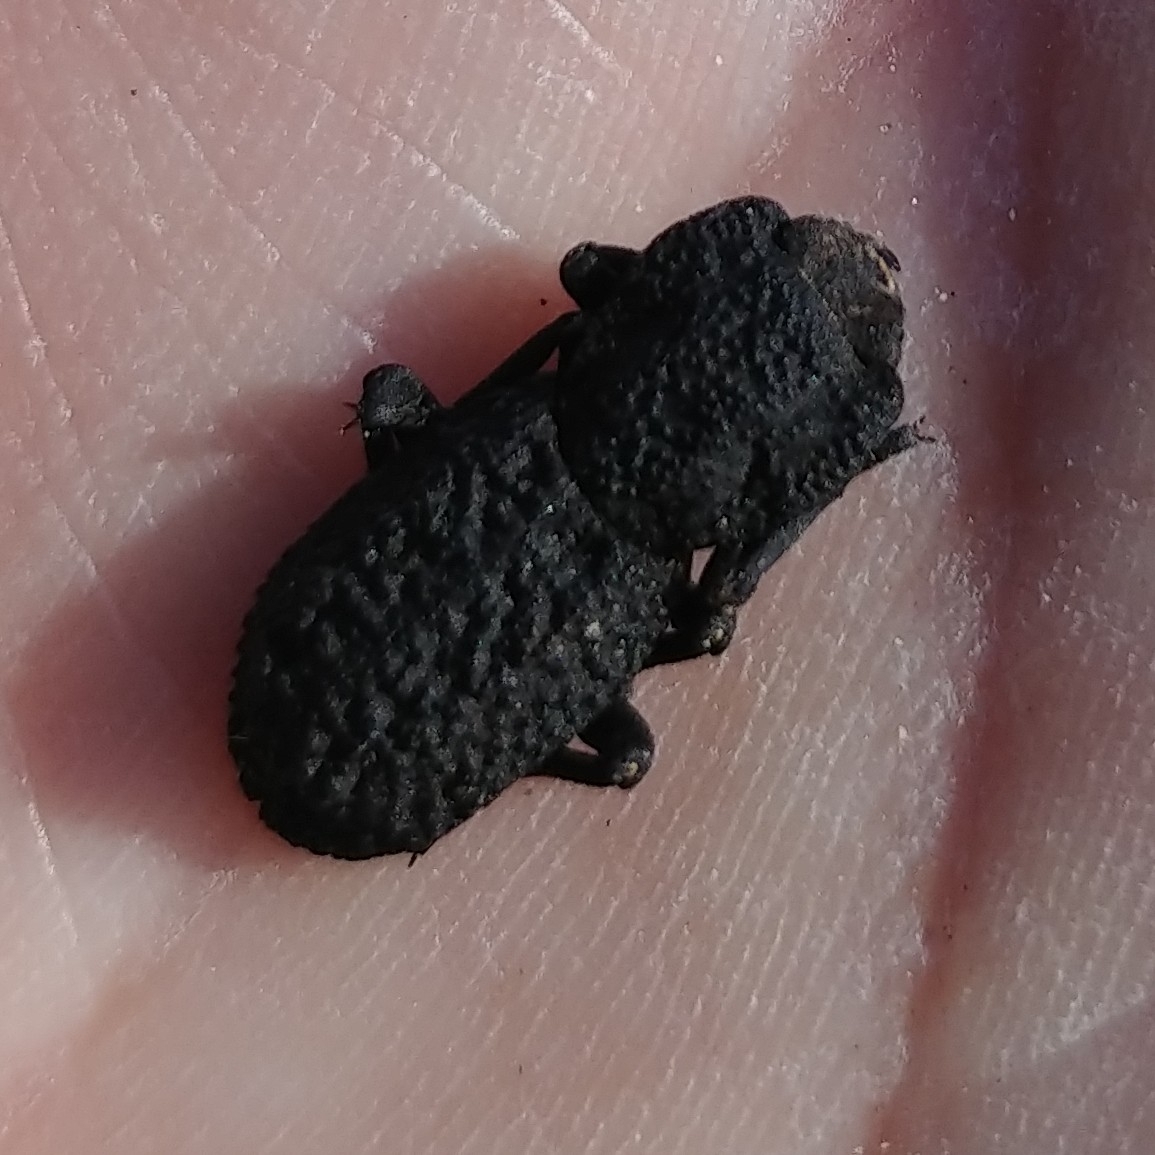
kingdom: Animalia
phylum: Arthropoda
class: Insecta
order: Coleoptera
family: Zopheridae
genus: Phloeodes
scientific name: Phloeodes diabolicus
